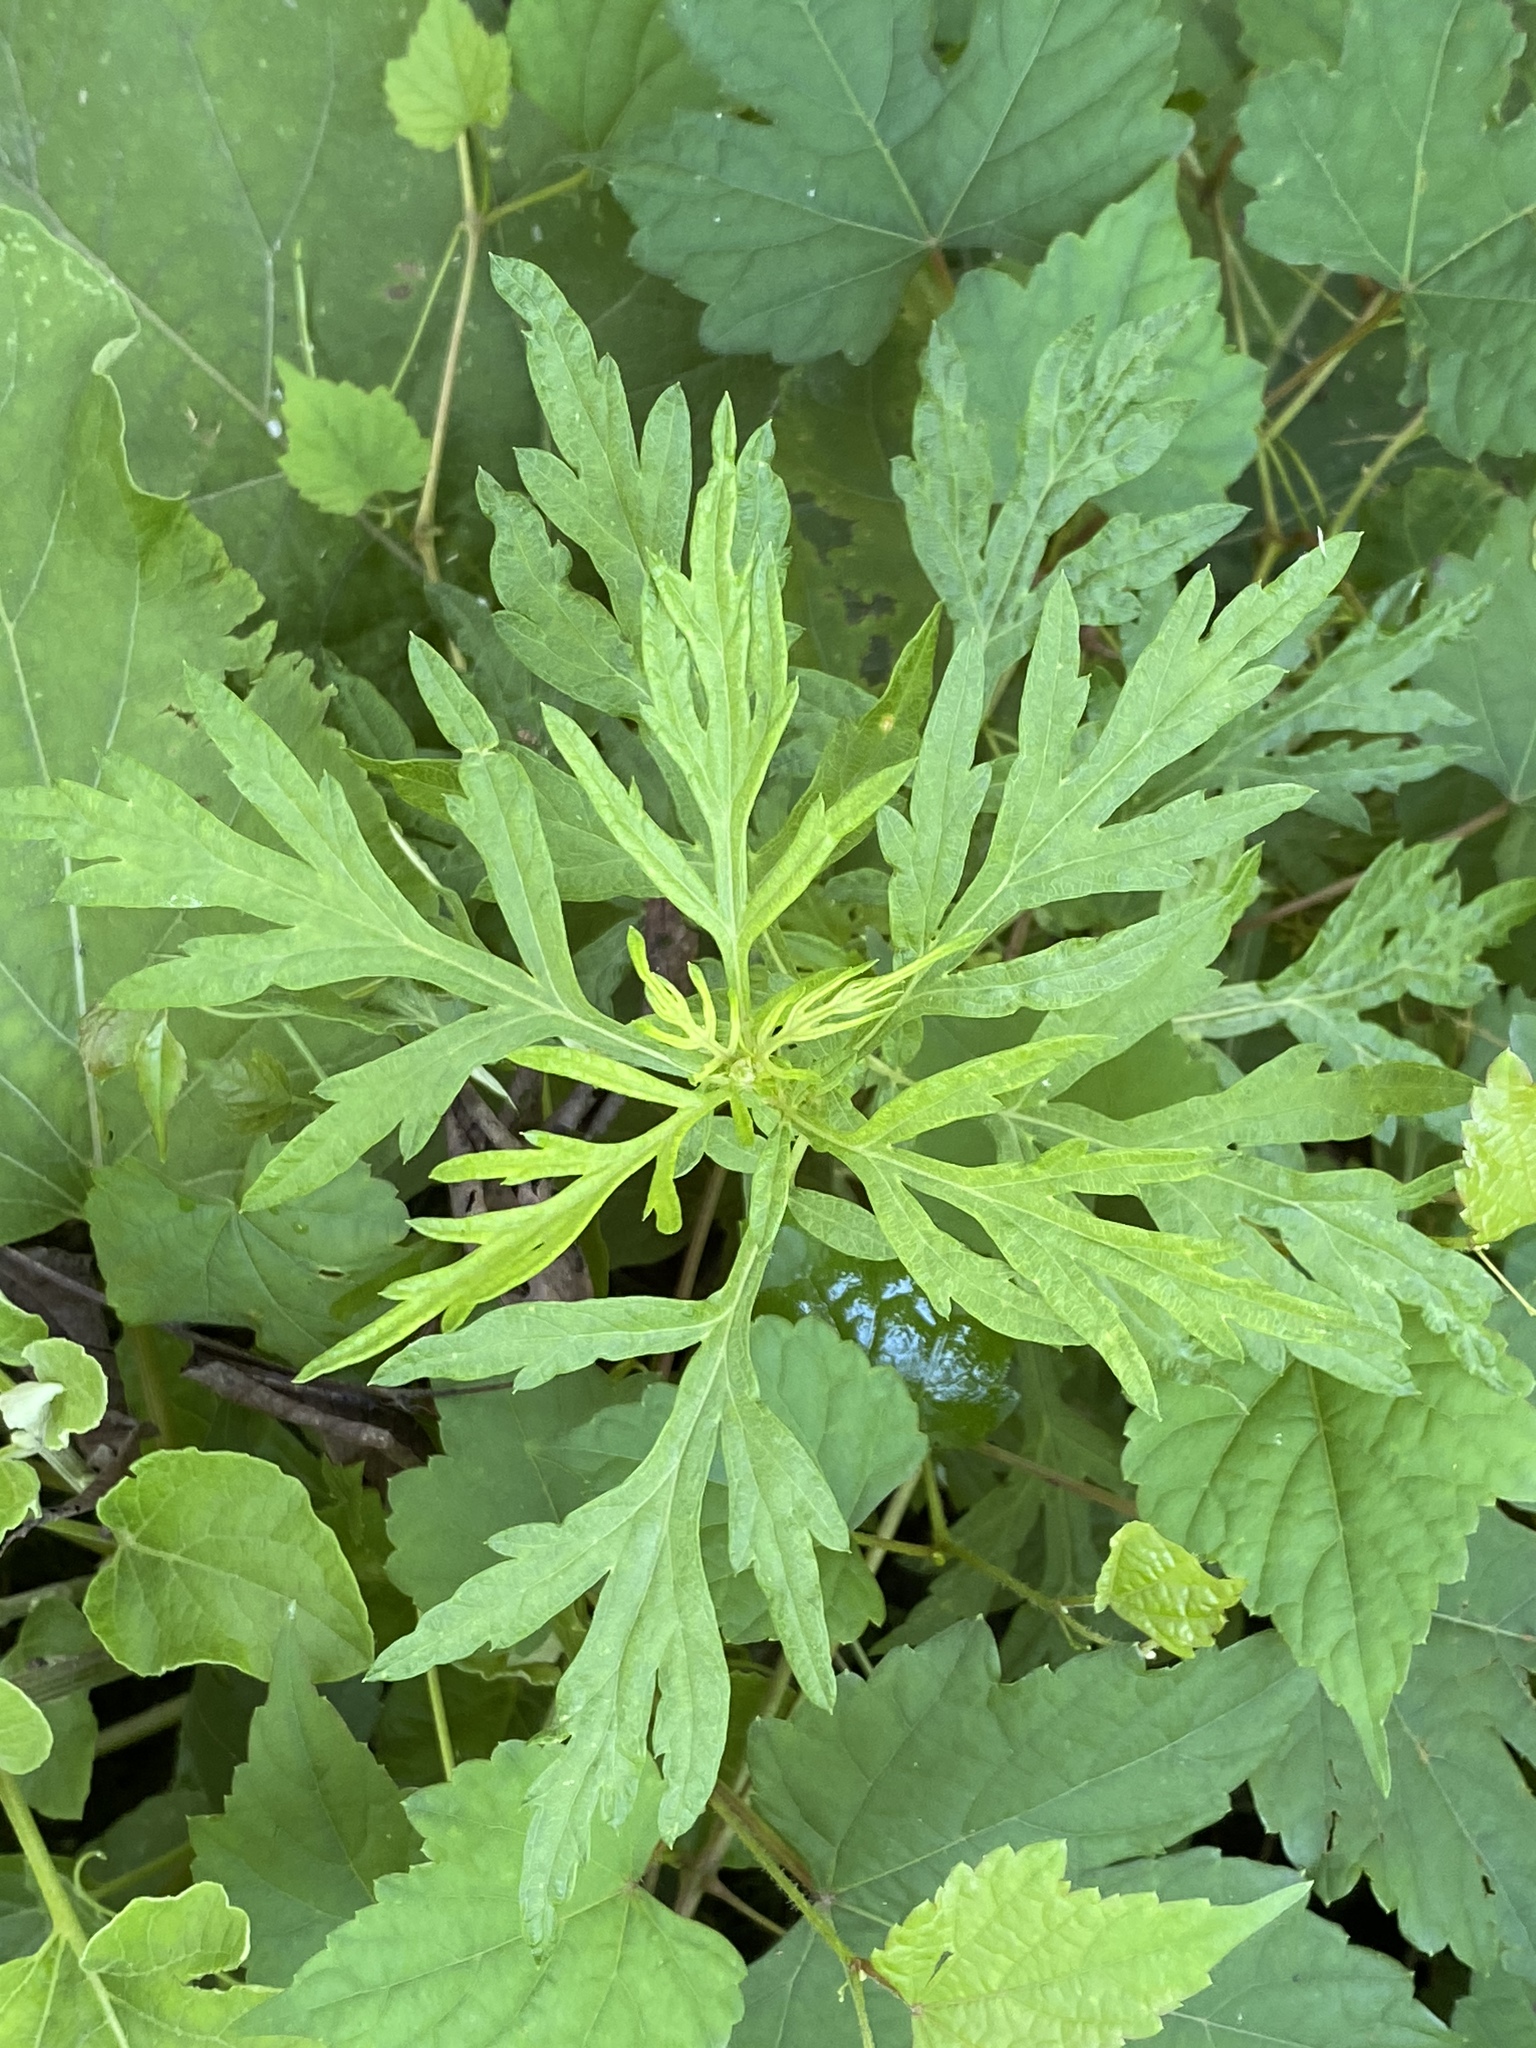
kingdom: Plantae
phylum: Tracheophyta
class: Magnoliopsida
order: Asterales
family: Asteraceae
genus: Ambrosia
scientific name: Ambrosia artemisiifolia
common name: Annual ragweed
